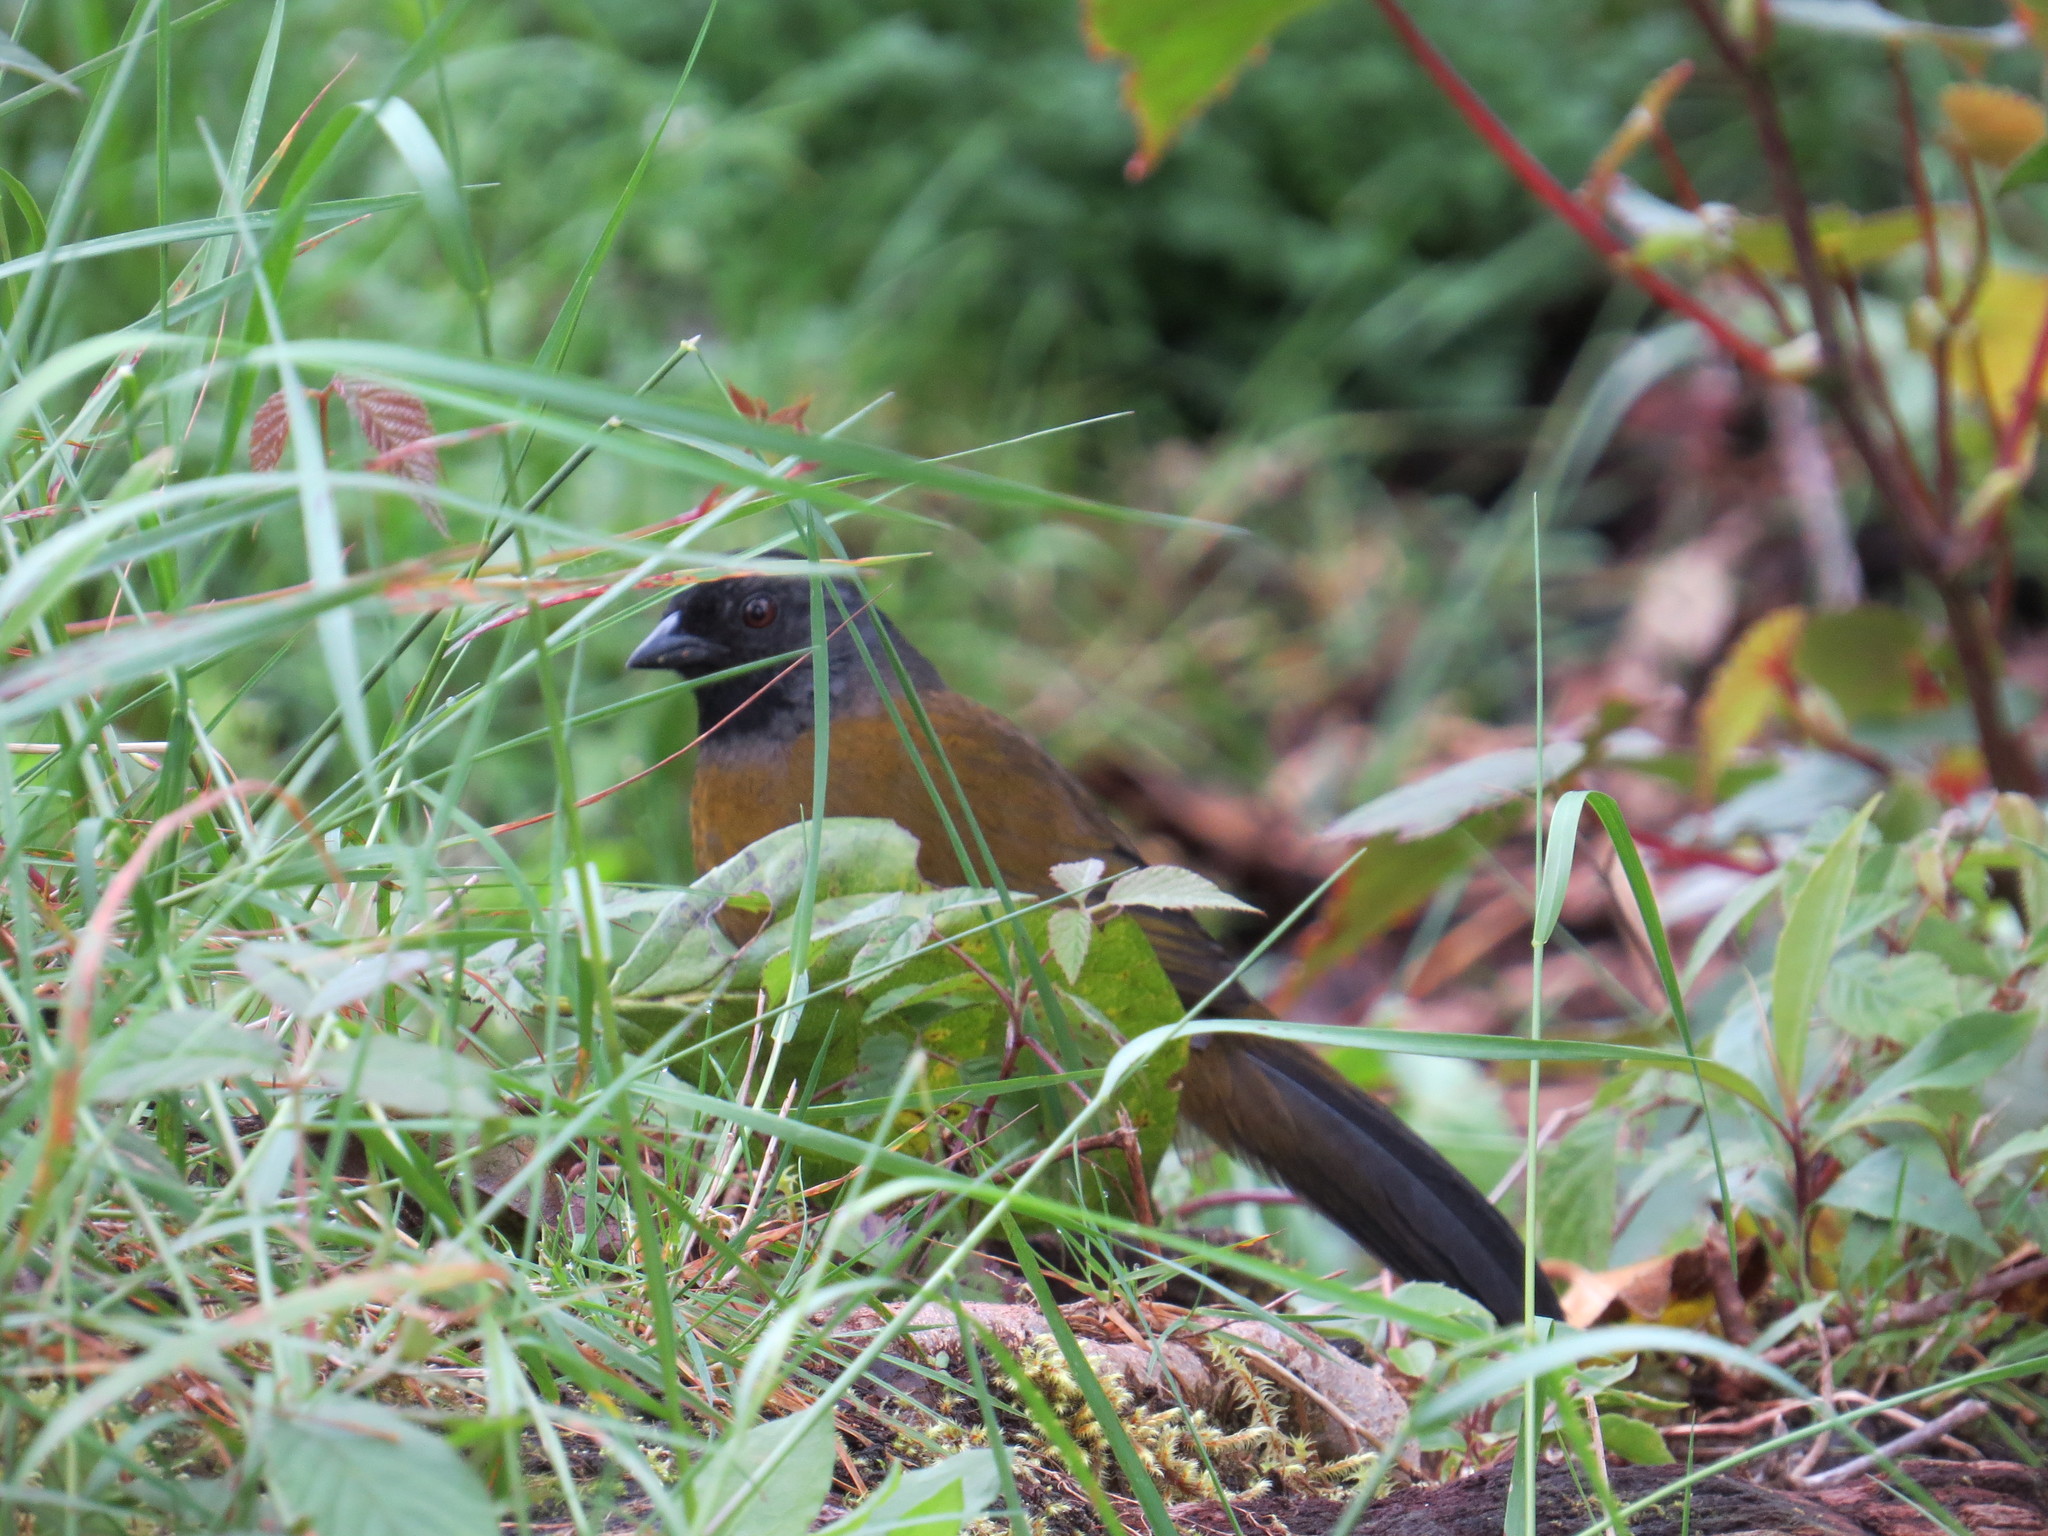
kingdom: Animalia
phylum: Chordata
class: Aves
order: Passeriformes
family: Passerellidae
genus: Pezopetes
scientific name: Pezopetes capitalis
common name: Large-footed finch
